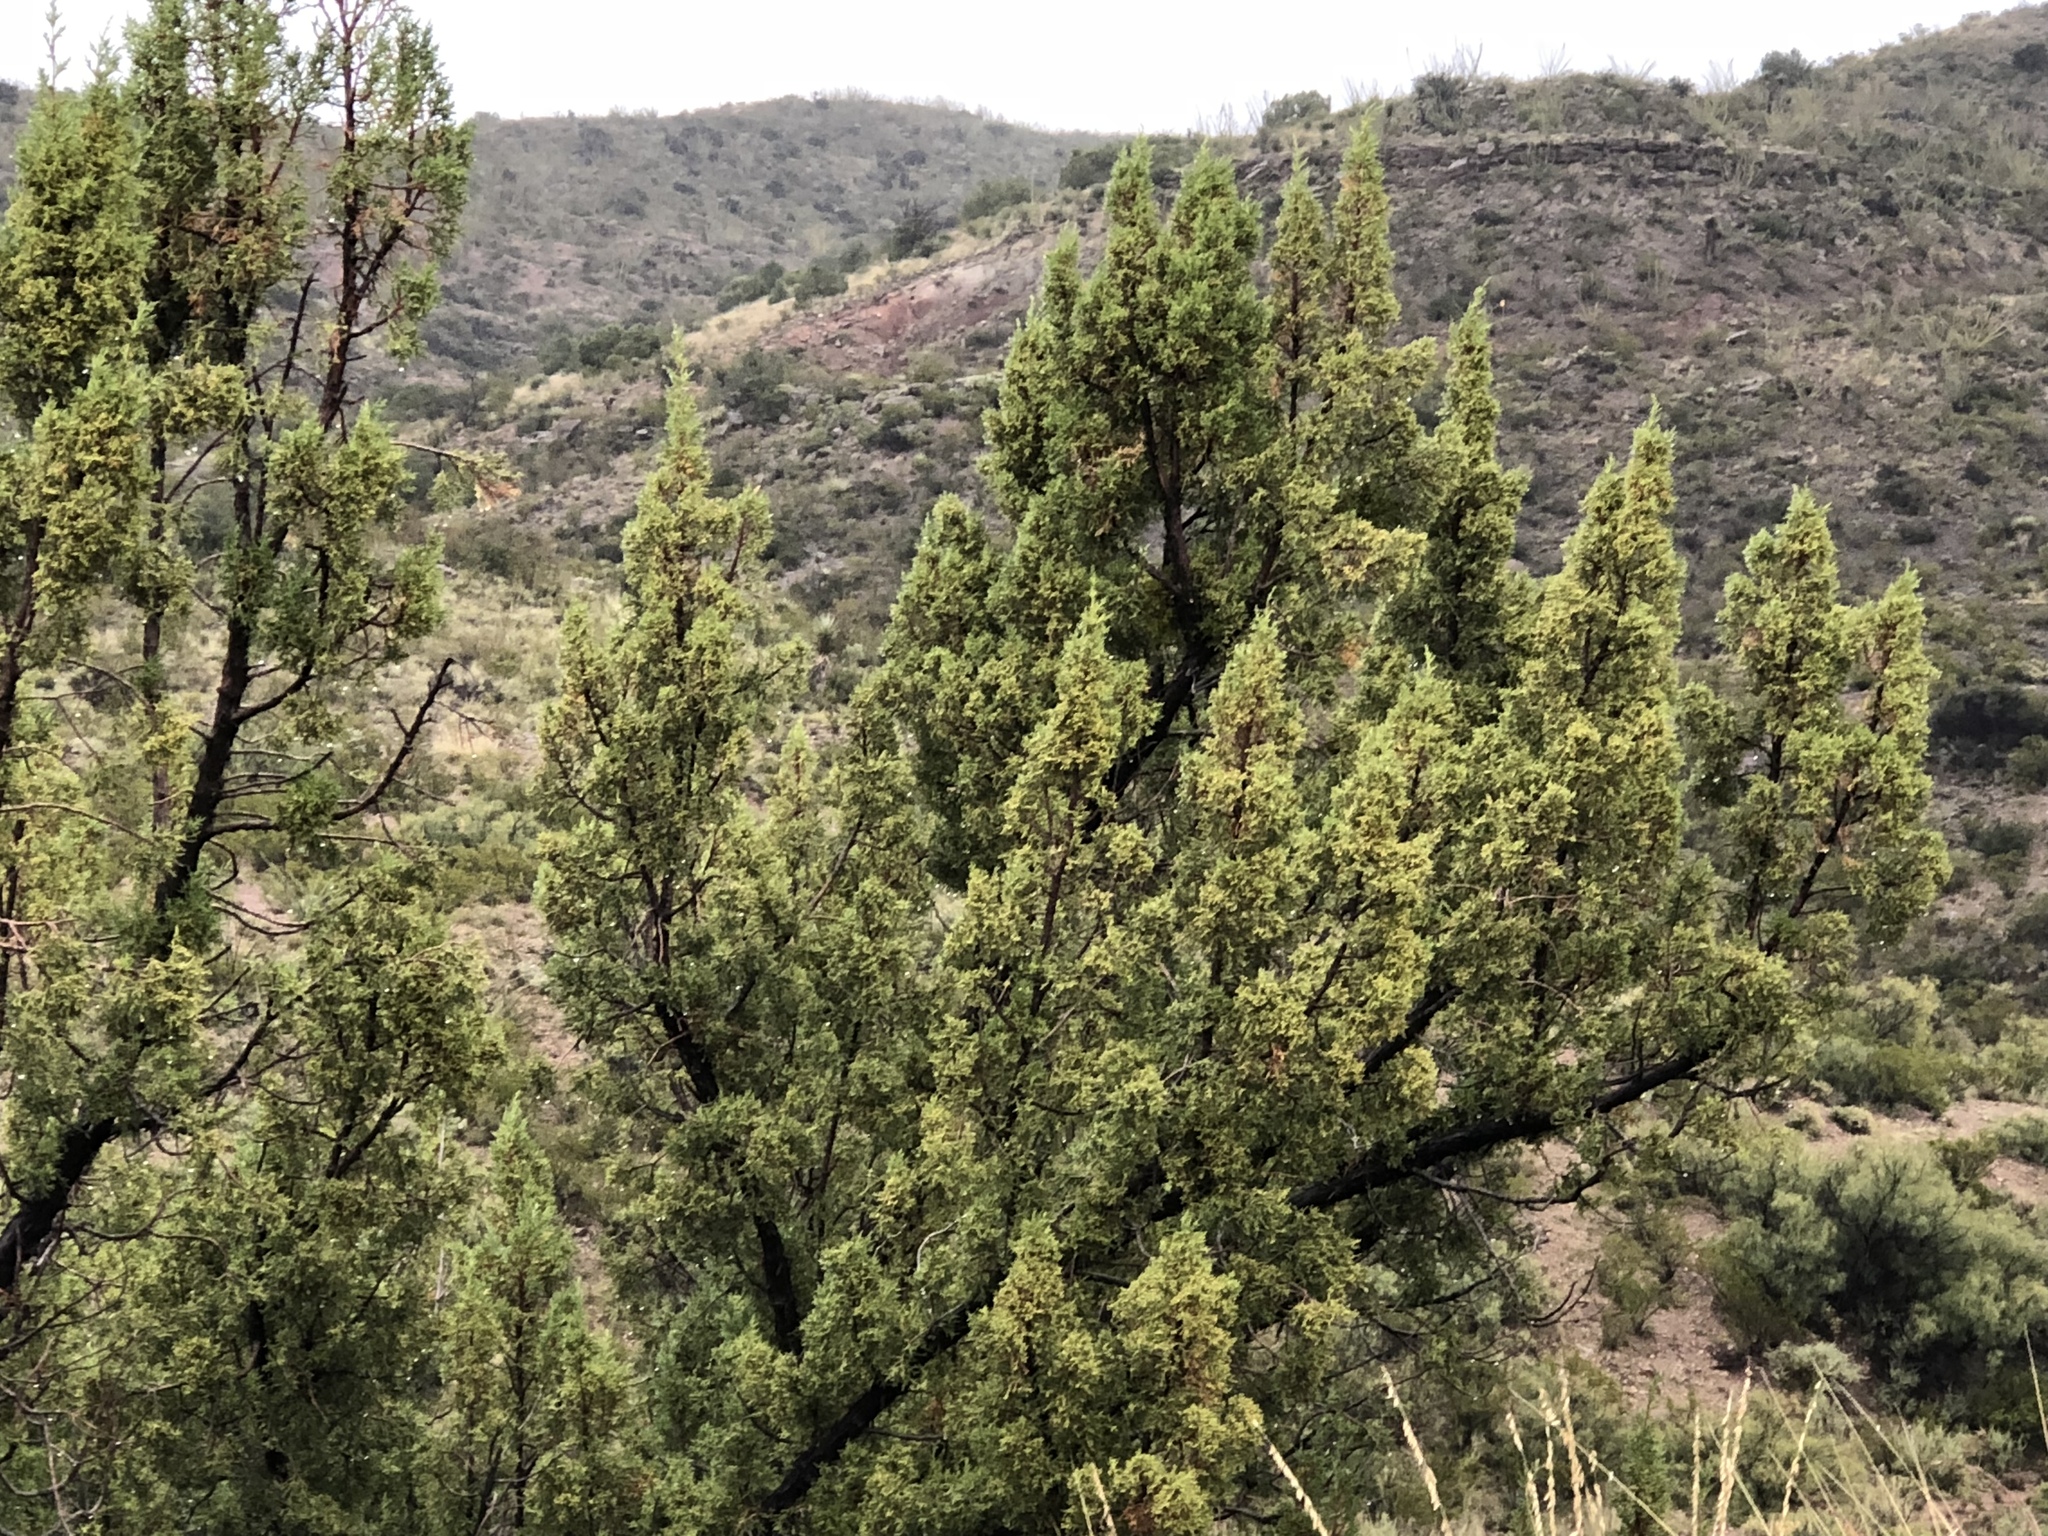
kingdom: Plantae
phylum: Tracheophyta
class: Pinopsida
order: Pinales
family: Cupressaceae
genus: Juniperus
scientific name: Juniperus monosperma
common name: One-seed juniper
